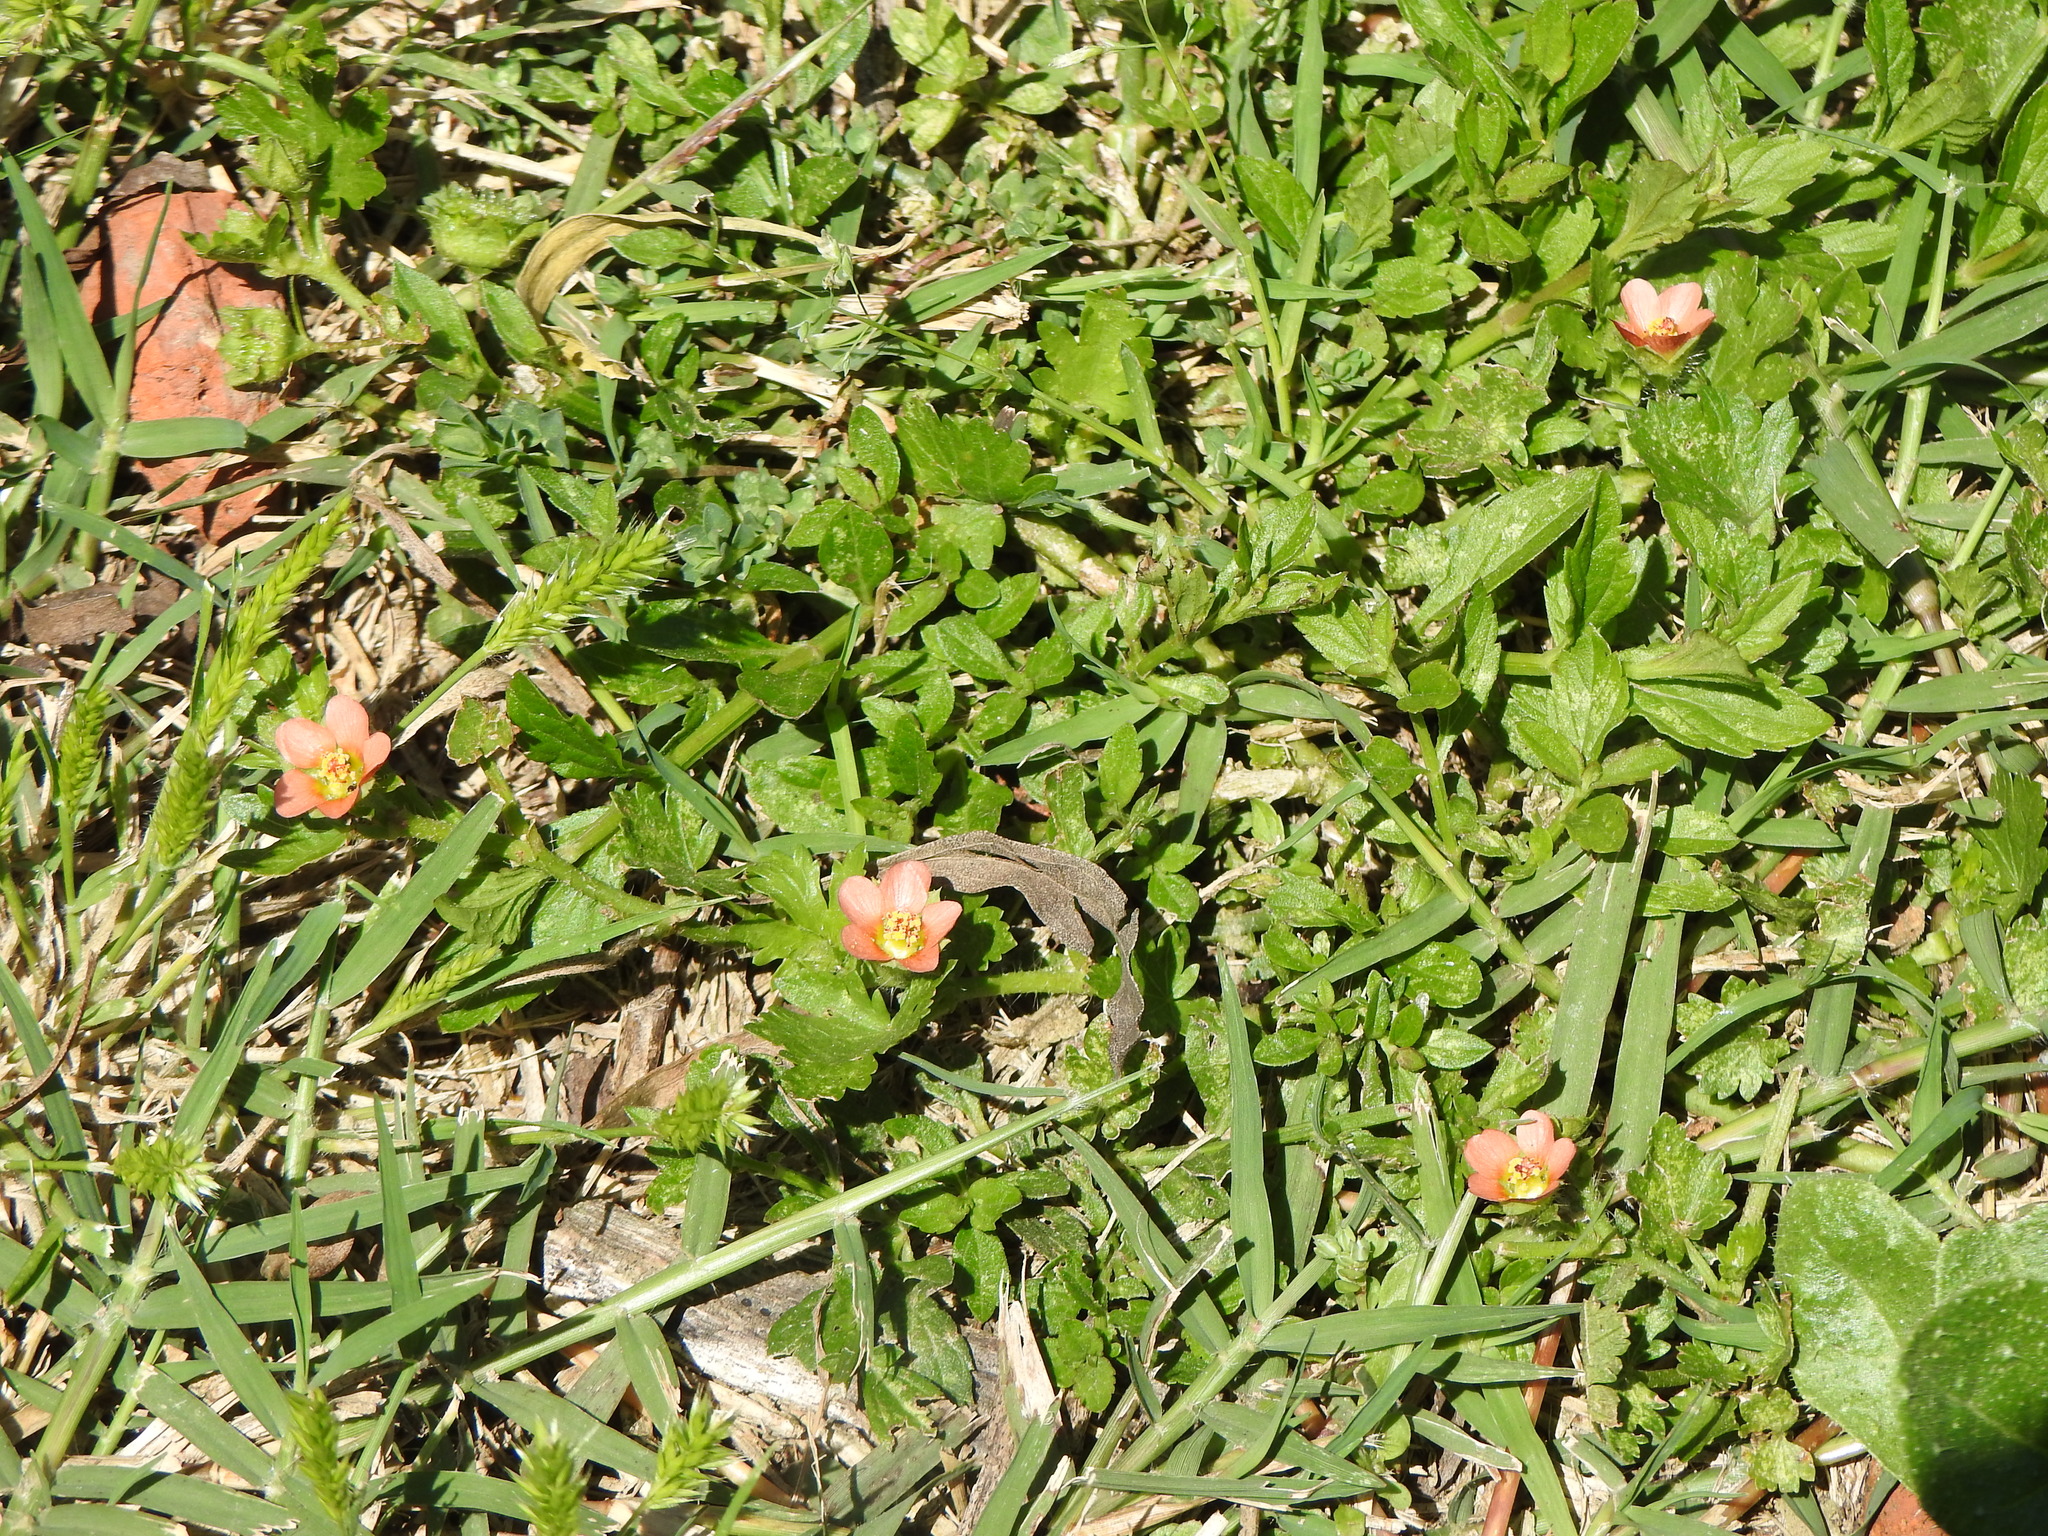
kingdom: Plantae
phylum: Tracheophyta
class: Magnoliopsida
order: Malvales
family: Malvaceae
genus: Modiola
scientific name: Modiola caroliniana
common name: Carolina bristlemallow
